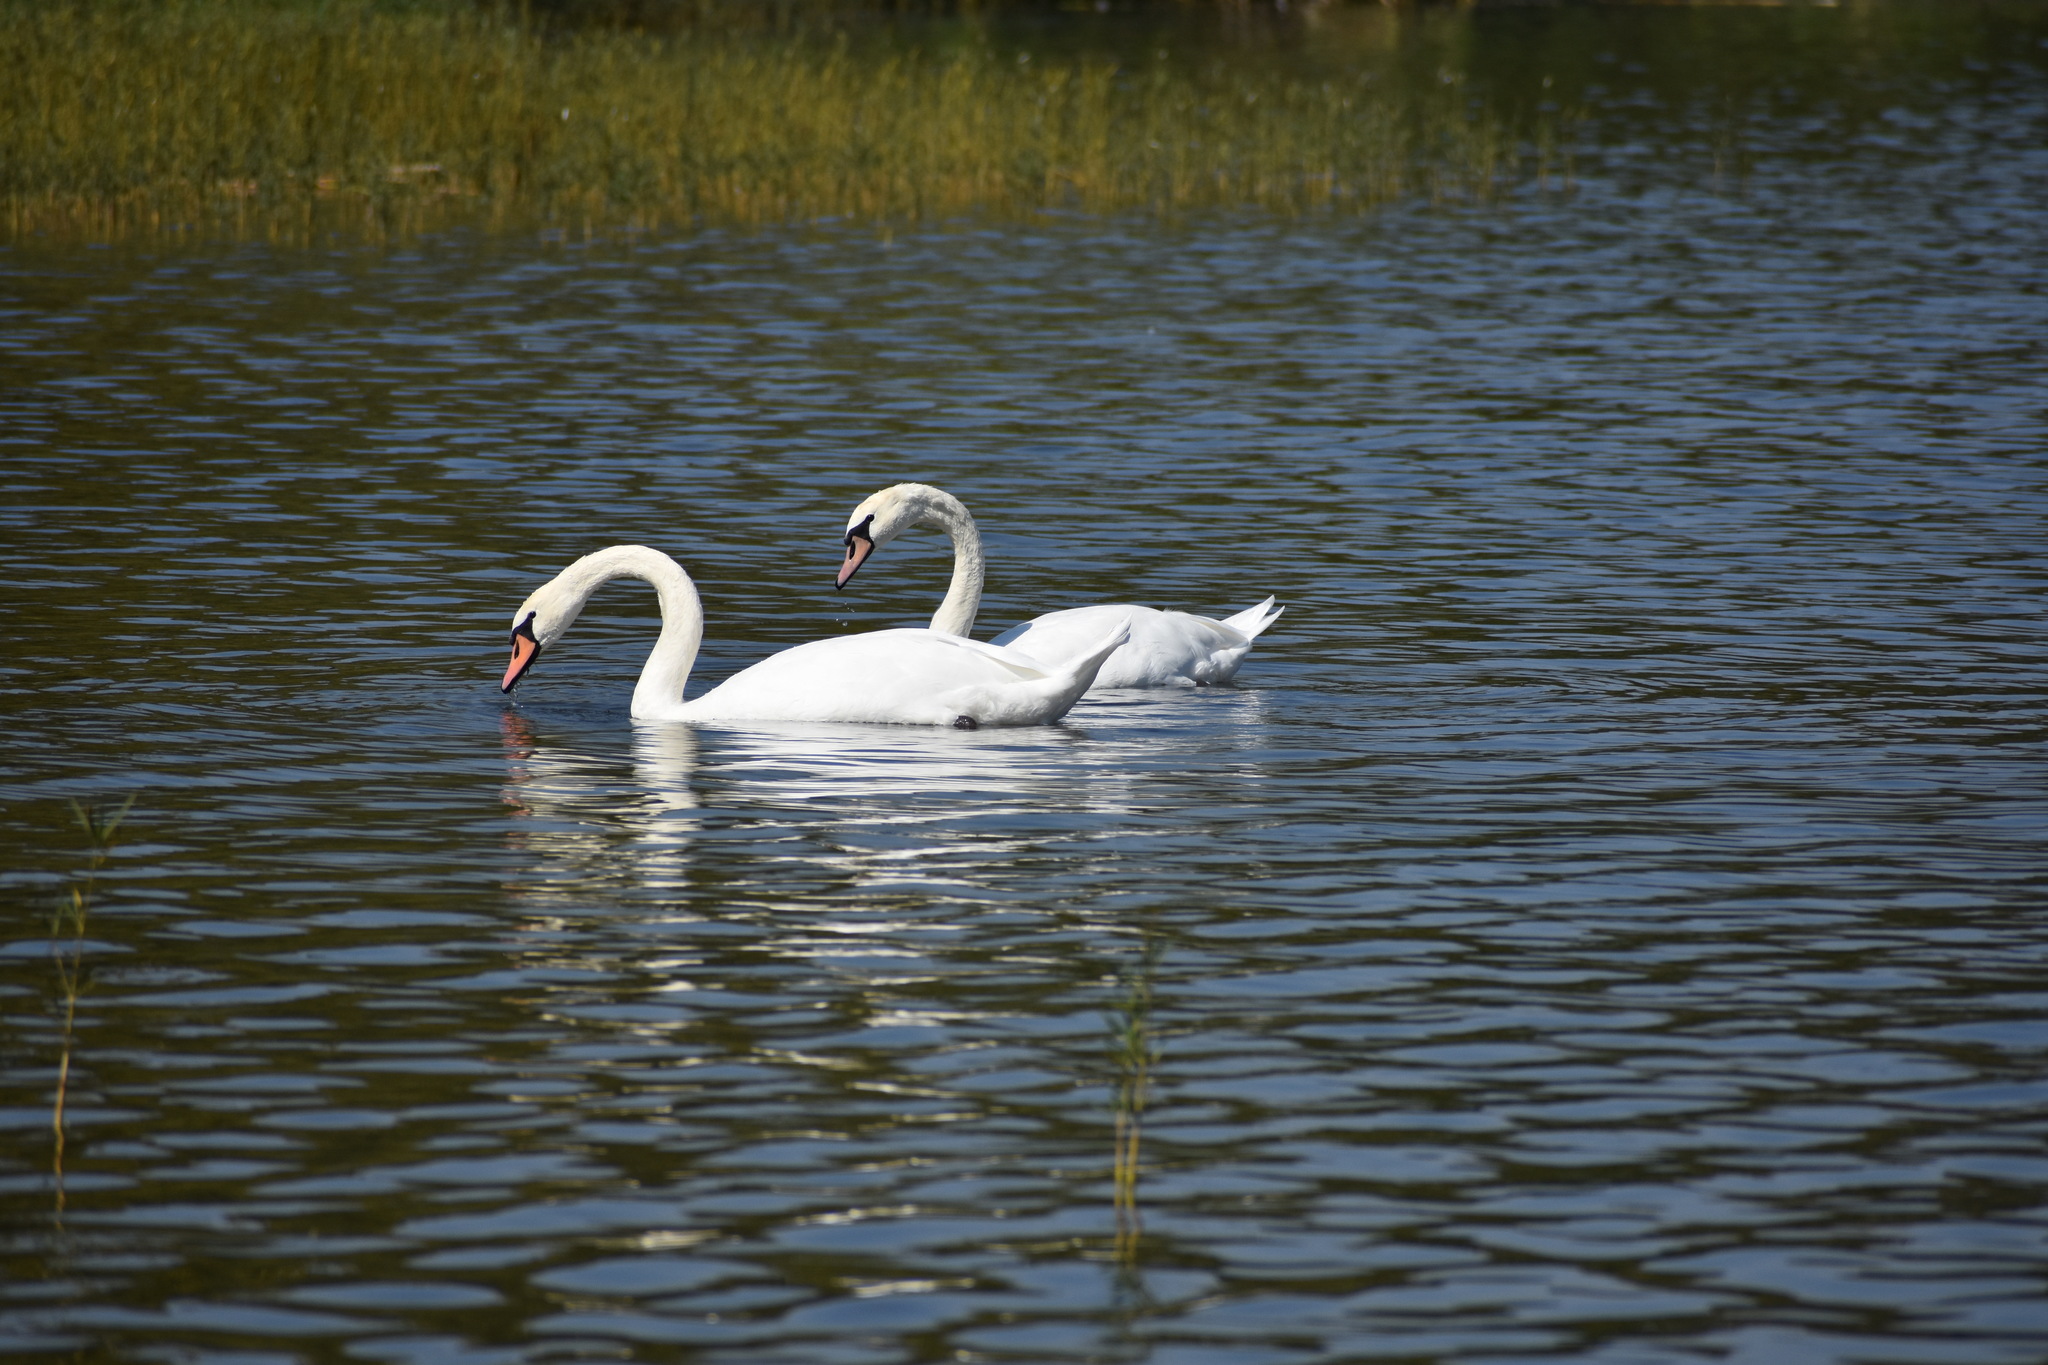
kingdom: Animalia
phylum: Chordata
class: Aves
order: Anseriformes
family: Anatidae
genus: Cygnus
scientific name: Cygnus olor
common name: Mute swan
